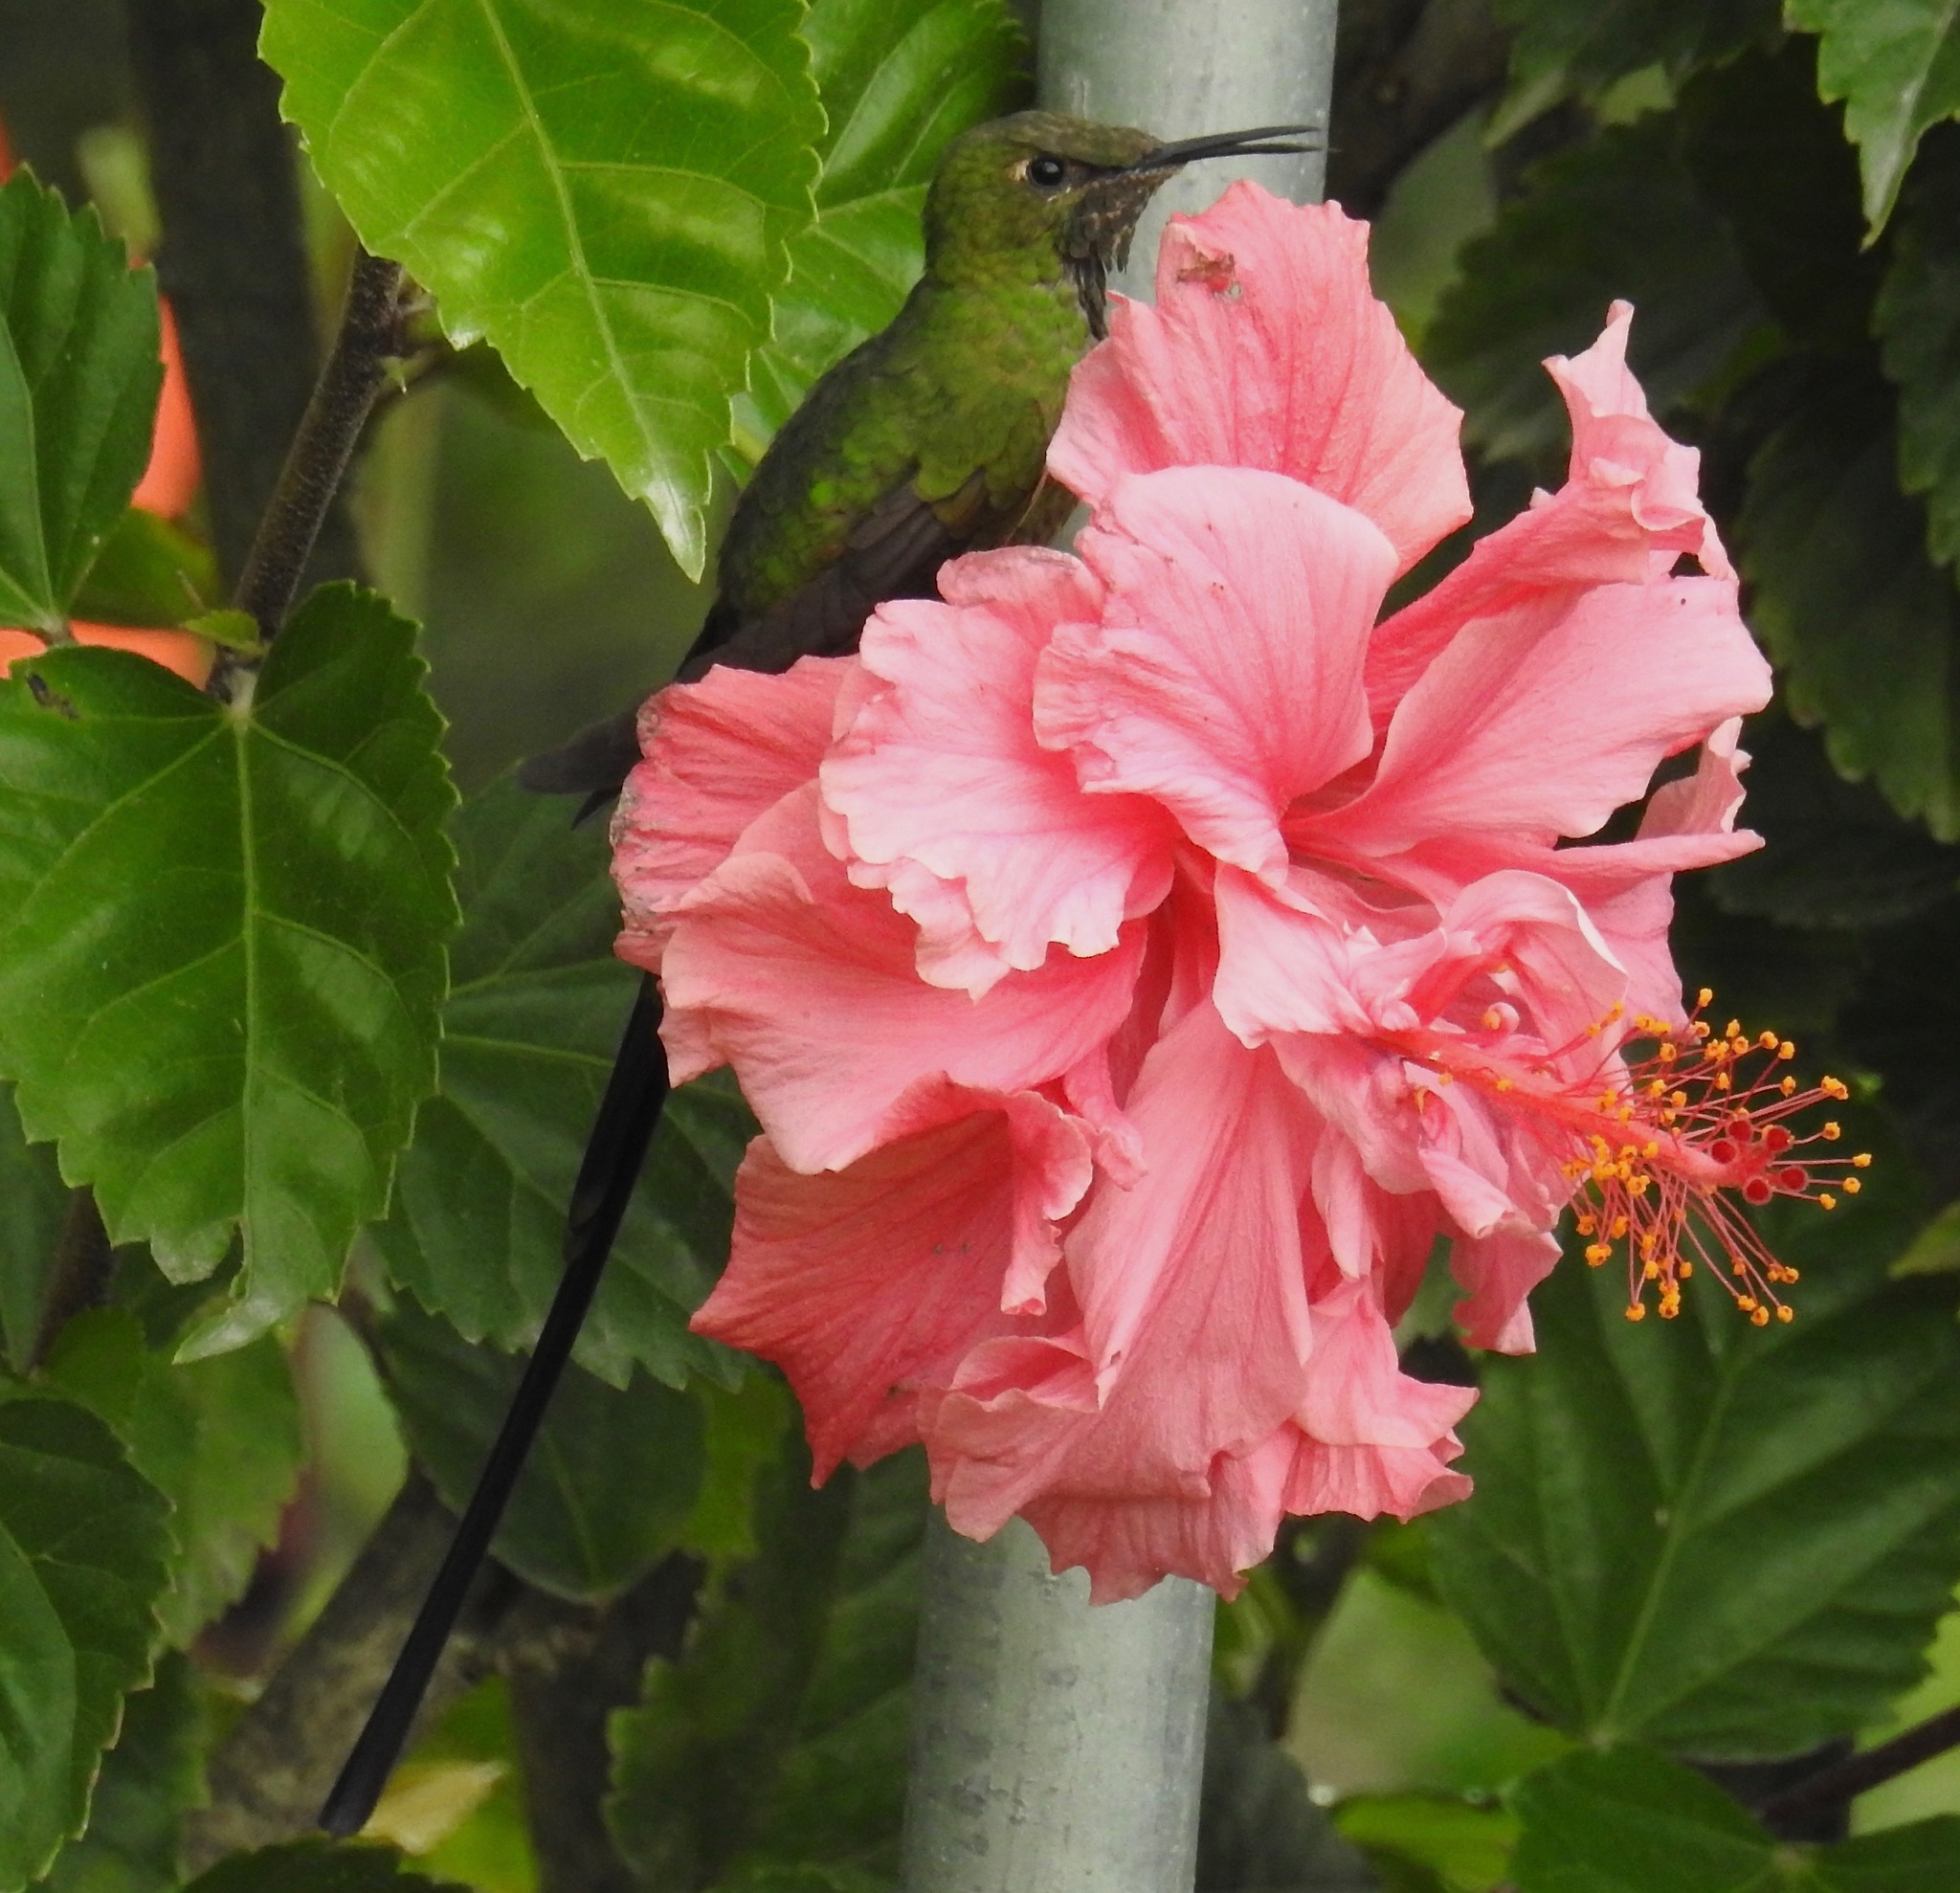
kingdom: Animalia
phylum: Chordata
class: Aves
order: Apodiformes
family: Trochilidae
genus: Lesbia
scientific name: Lesbia victoriae
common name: Black-tailed trainbearer
